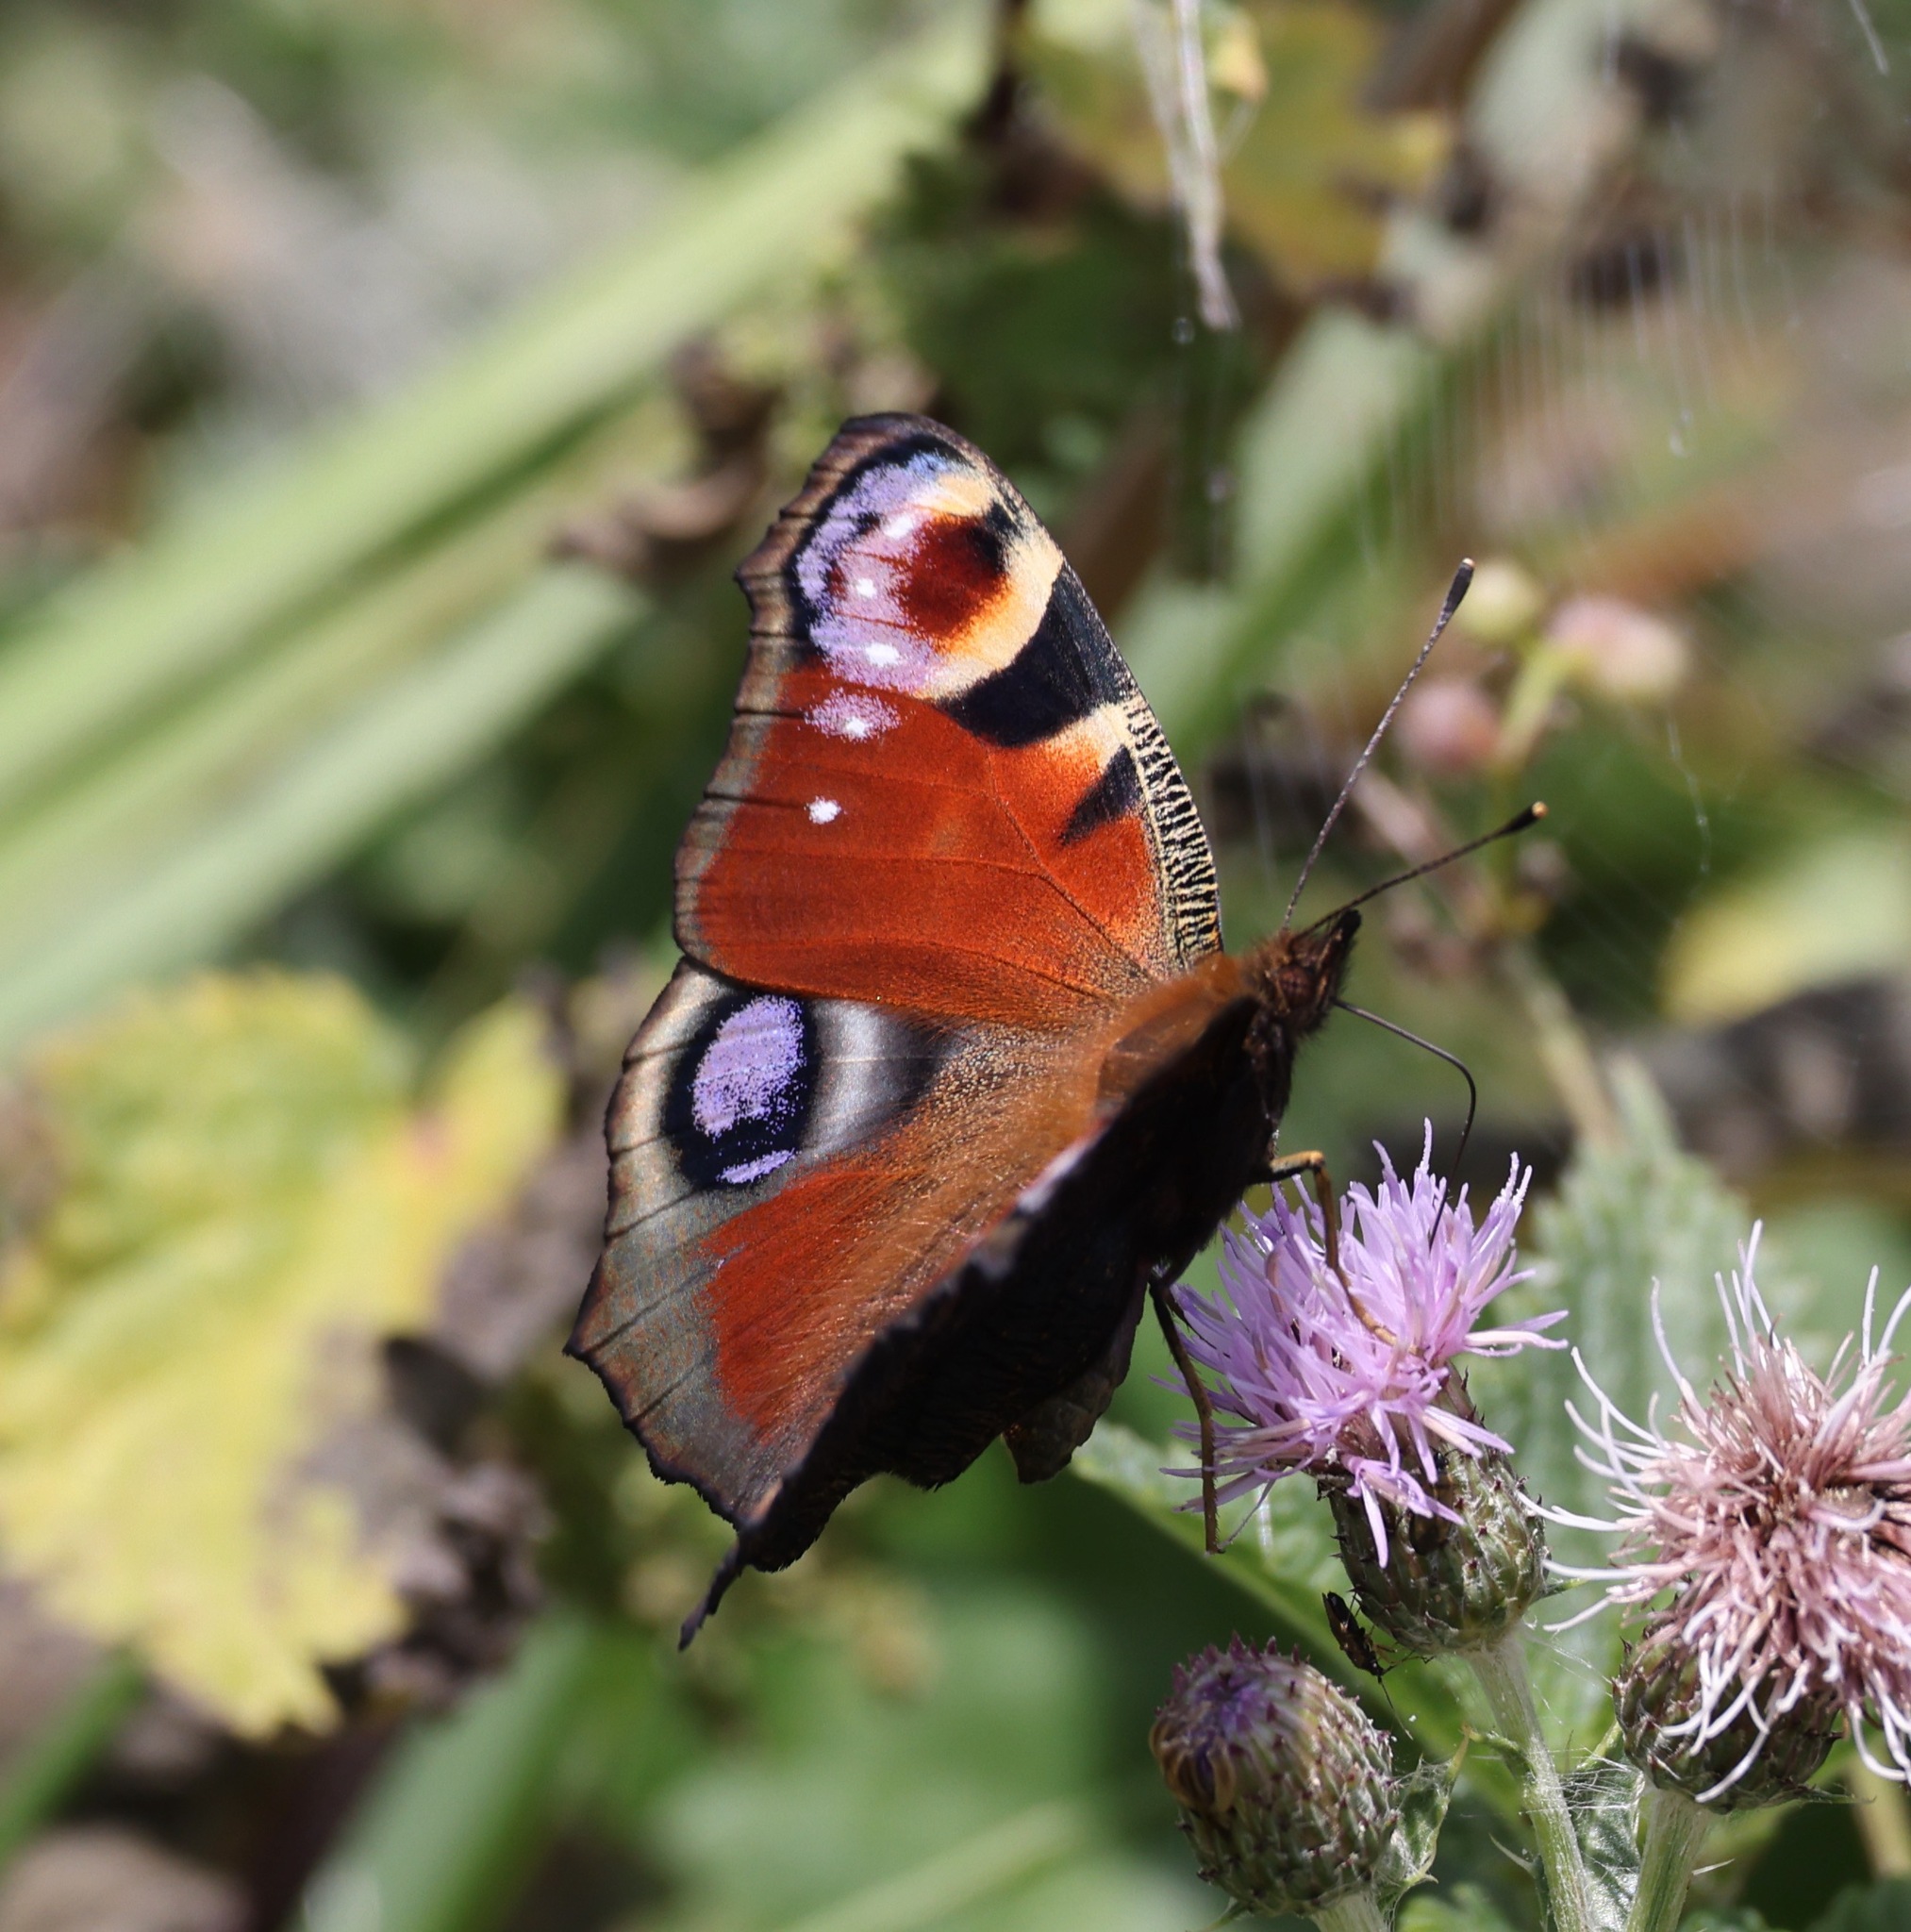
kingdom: Animalia
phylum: Arthropoda
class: Insecta
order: Lepidoptera
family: Nymphalidae
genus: Aglais
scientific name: Aglais io
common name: Peacock
